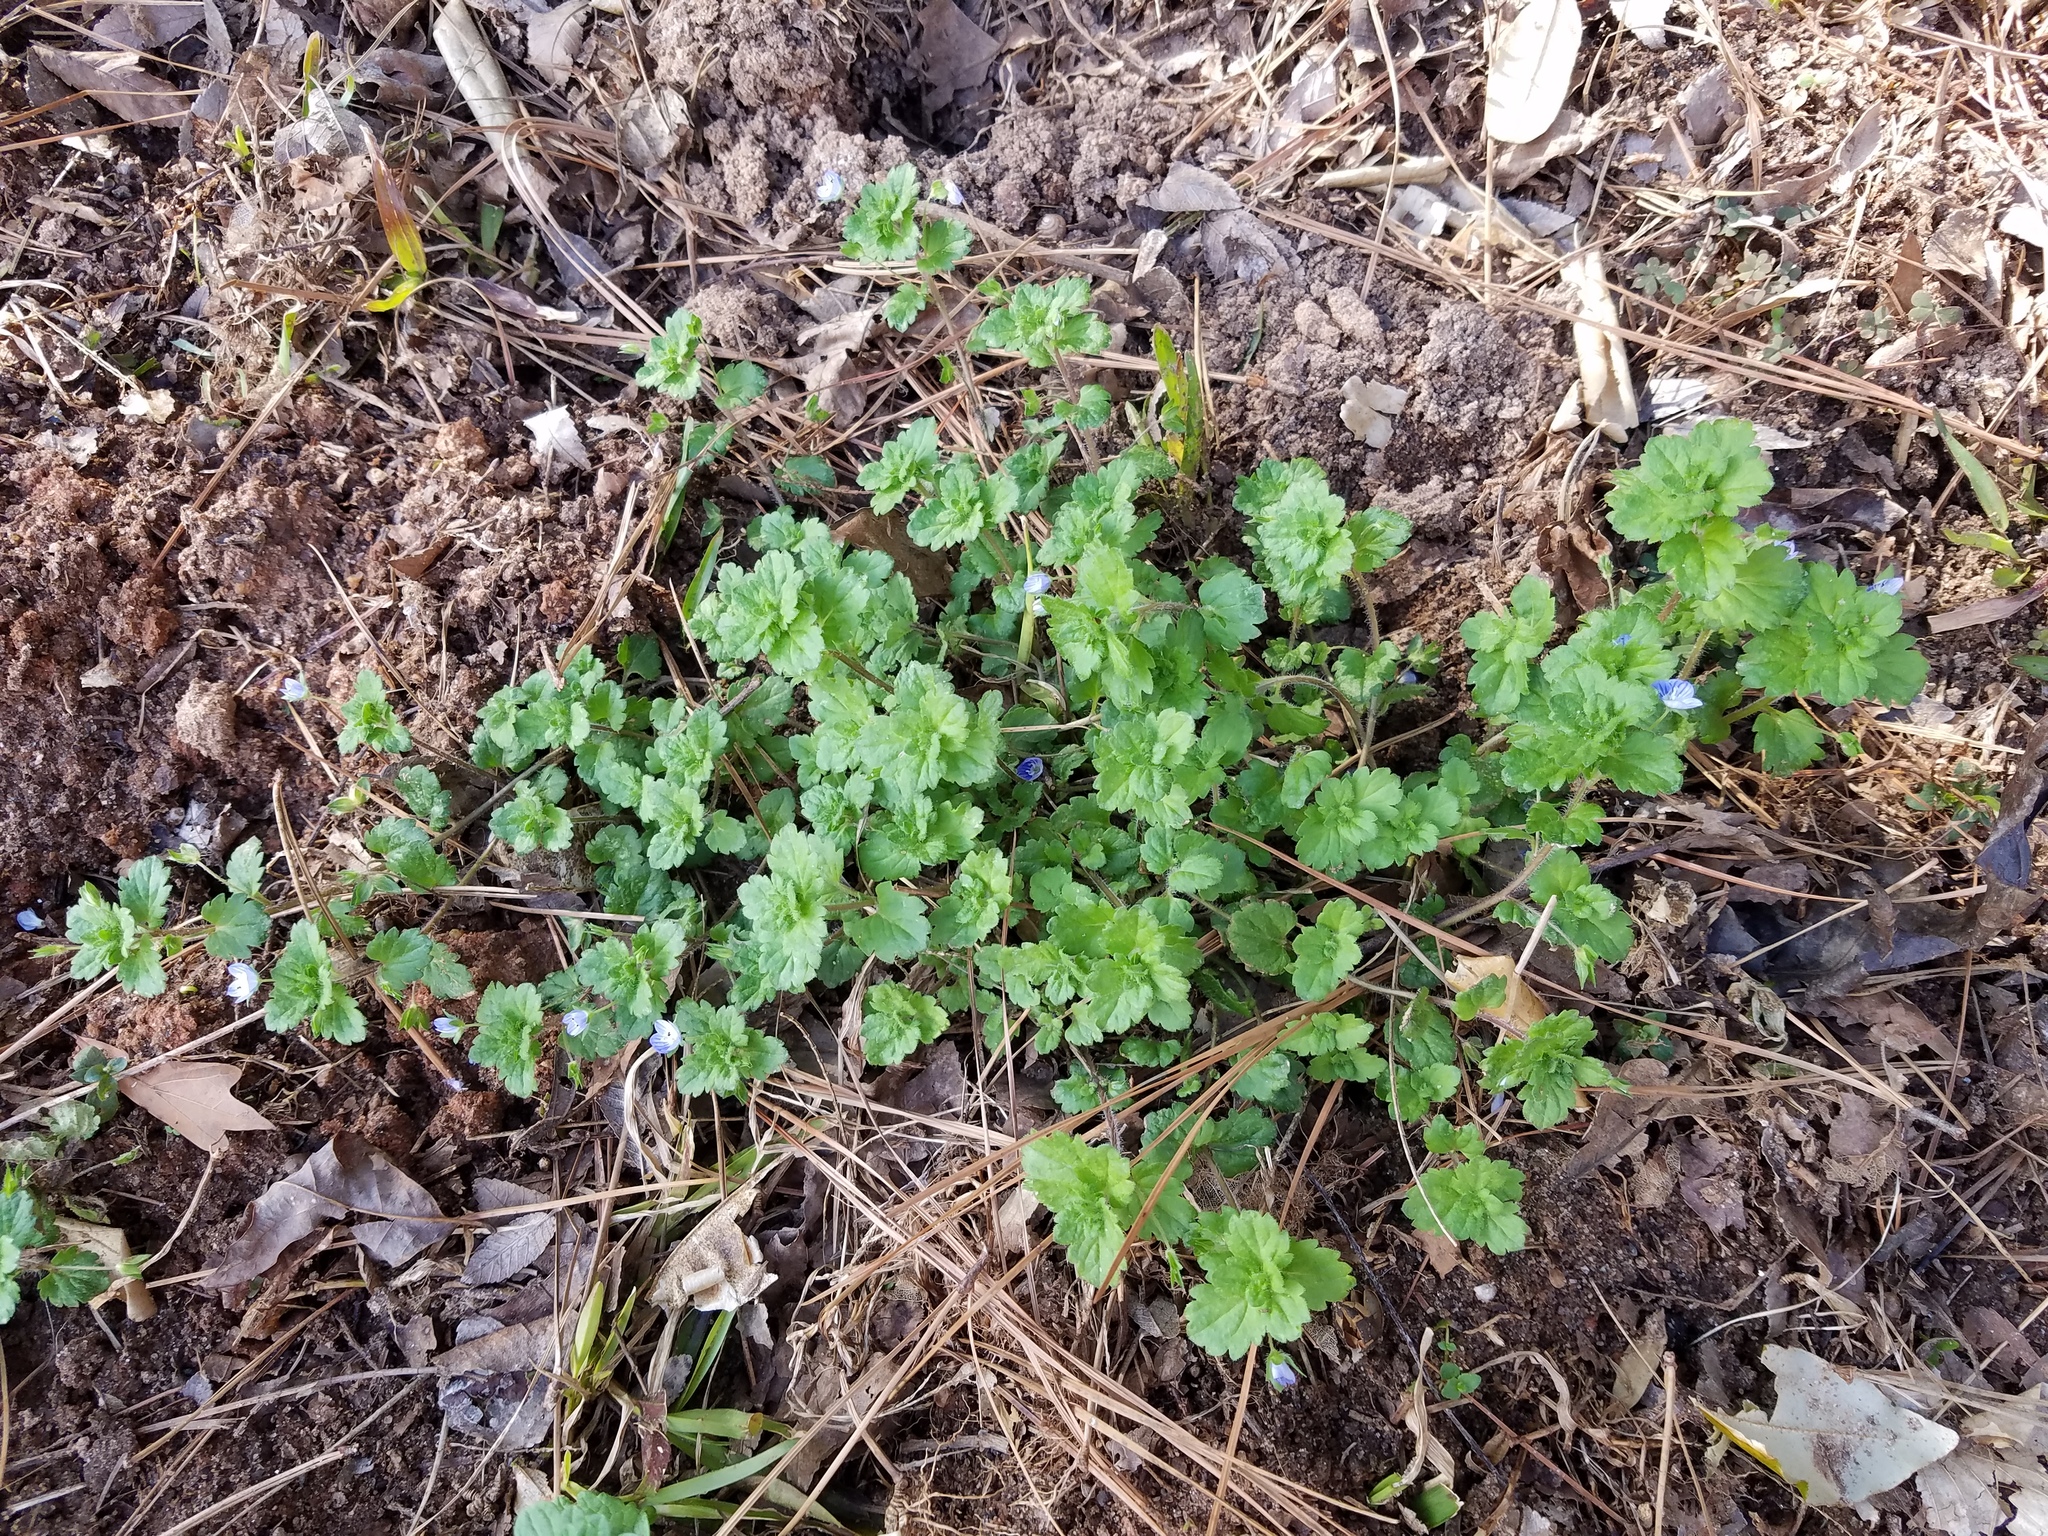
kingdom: Plantae
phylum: Tracheophyta
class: Magnoliopsida
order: Lamiales
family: Plantaginaceae
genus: Veronica
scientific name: Veronica persica
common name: Common field-speedwell
